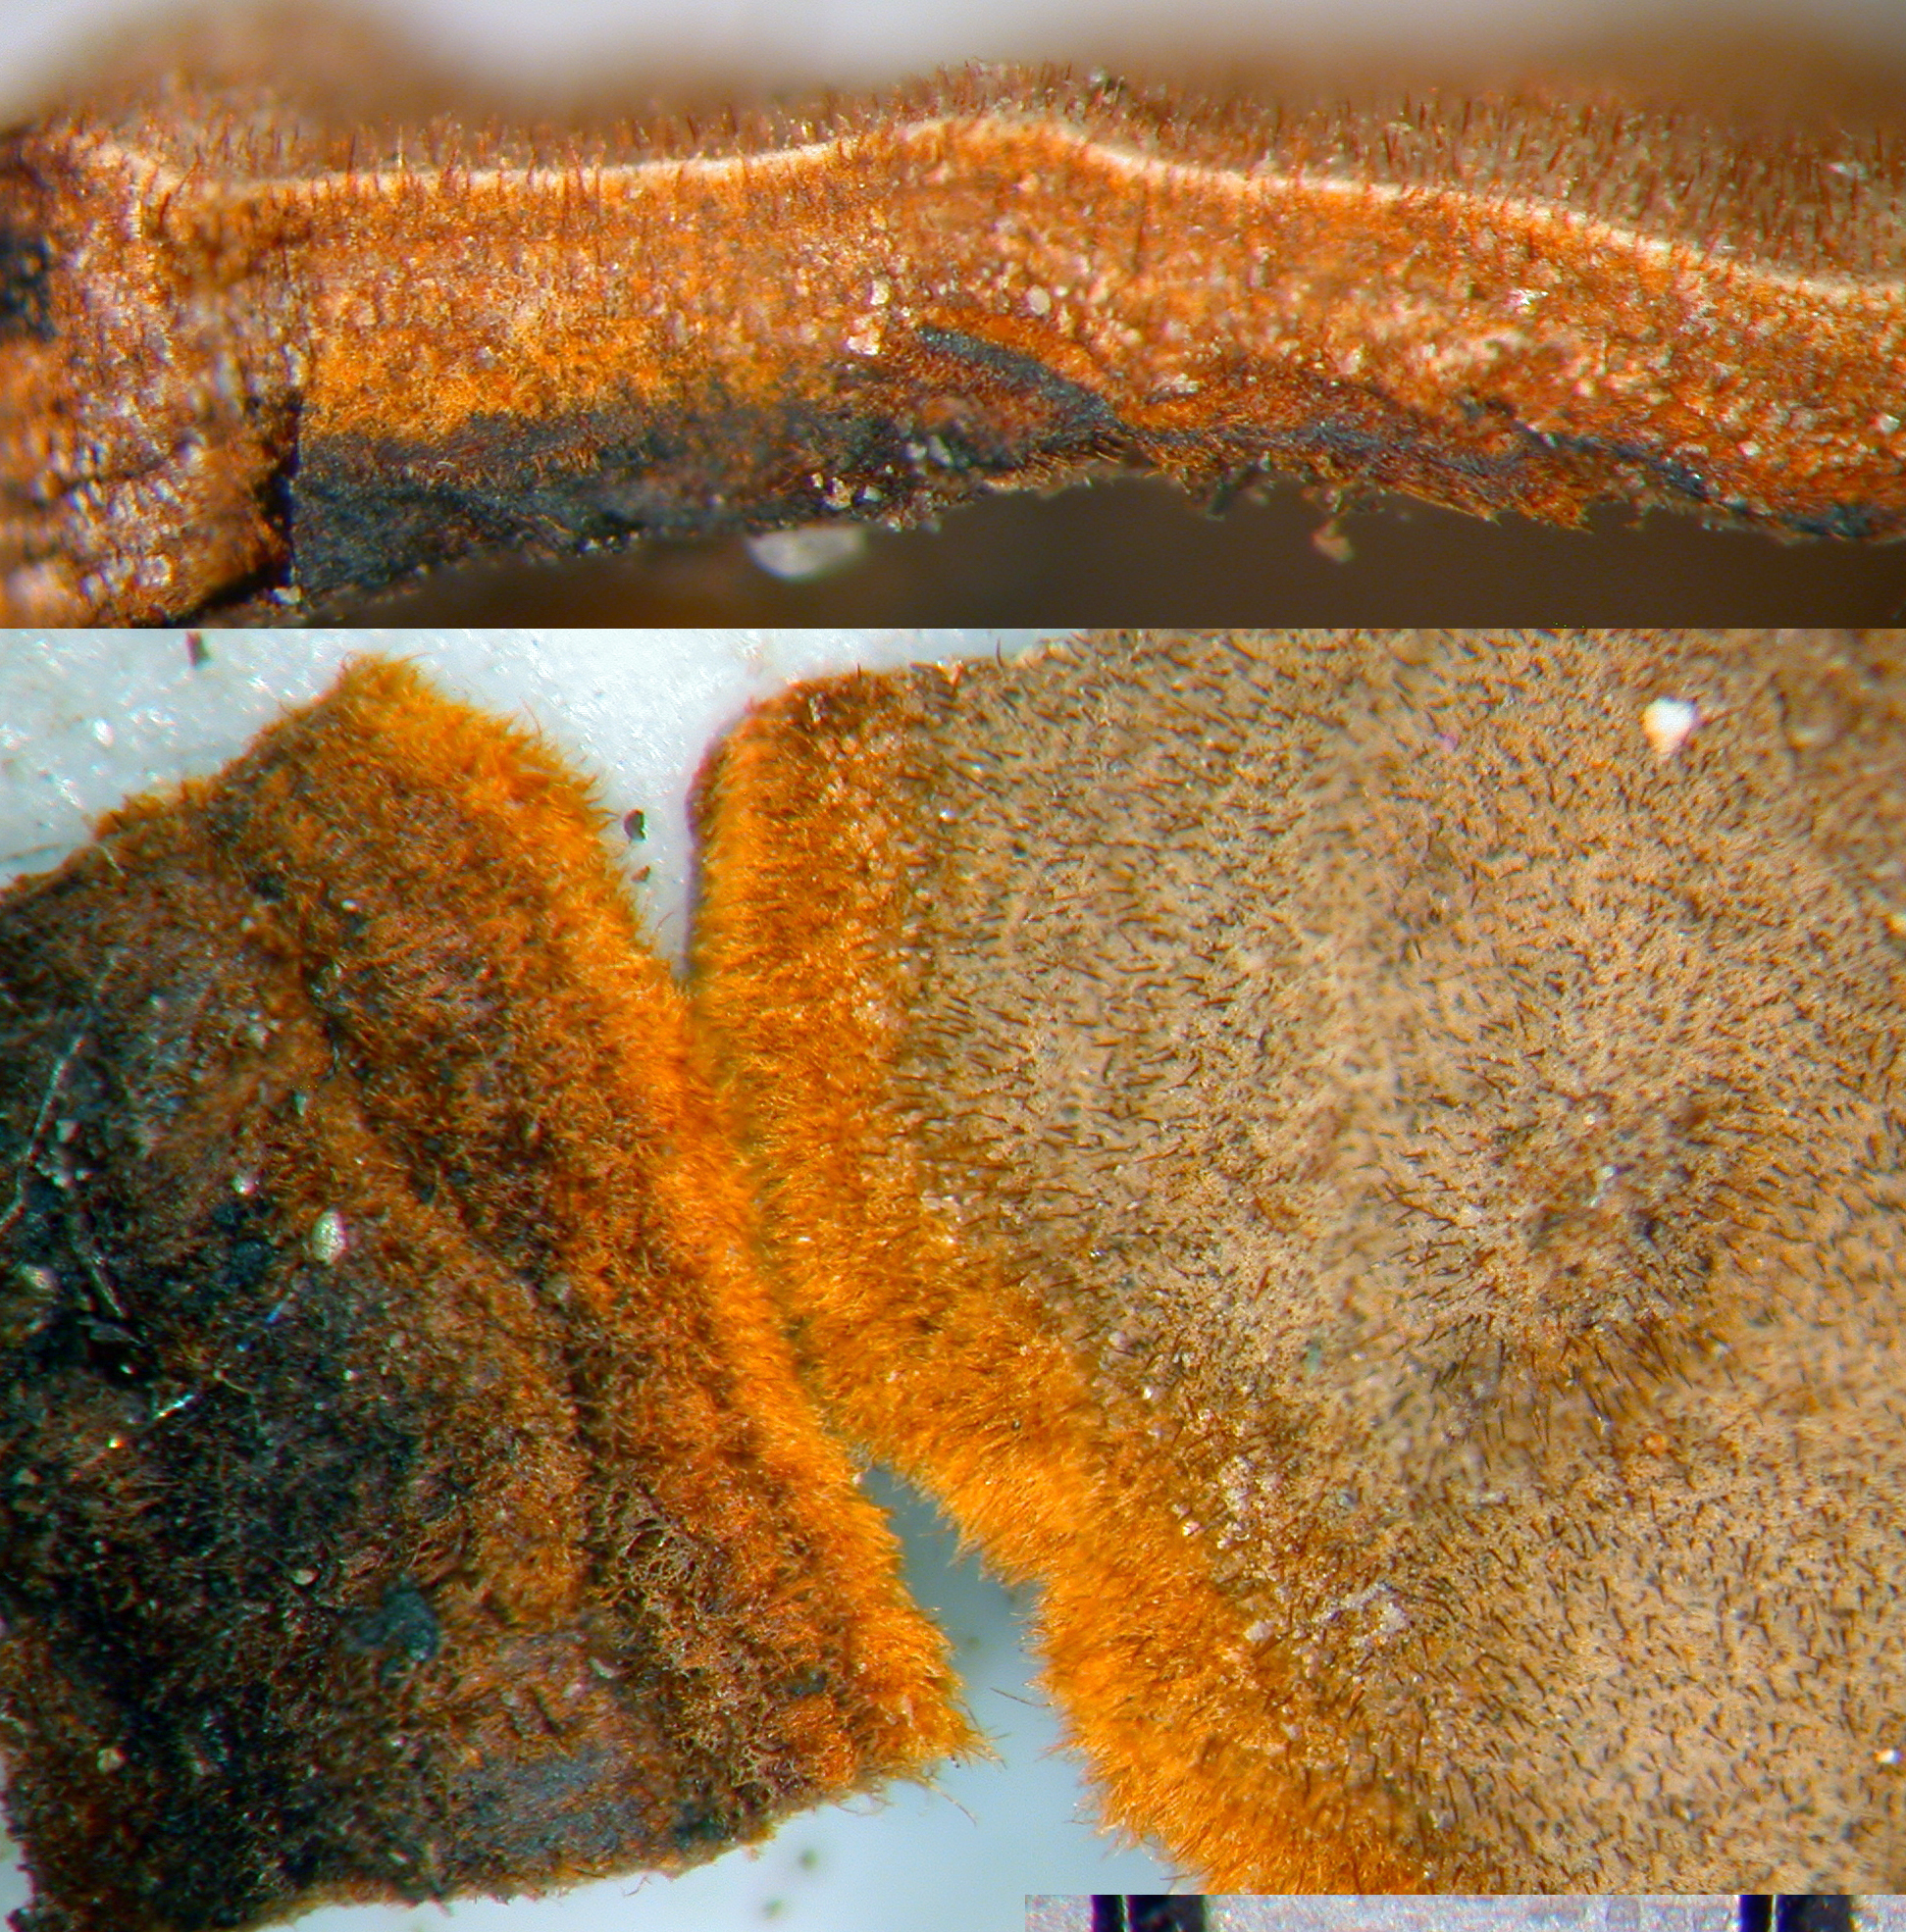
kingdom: Fungi
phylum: Basidiomycota
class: Agaricomycetes
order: Hymenochaetales
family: Hymenochaetaceae
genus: Hymenochaete
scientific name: Hymenochaete cinnamomea
